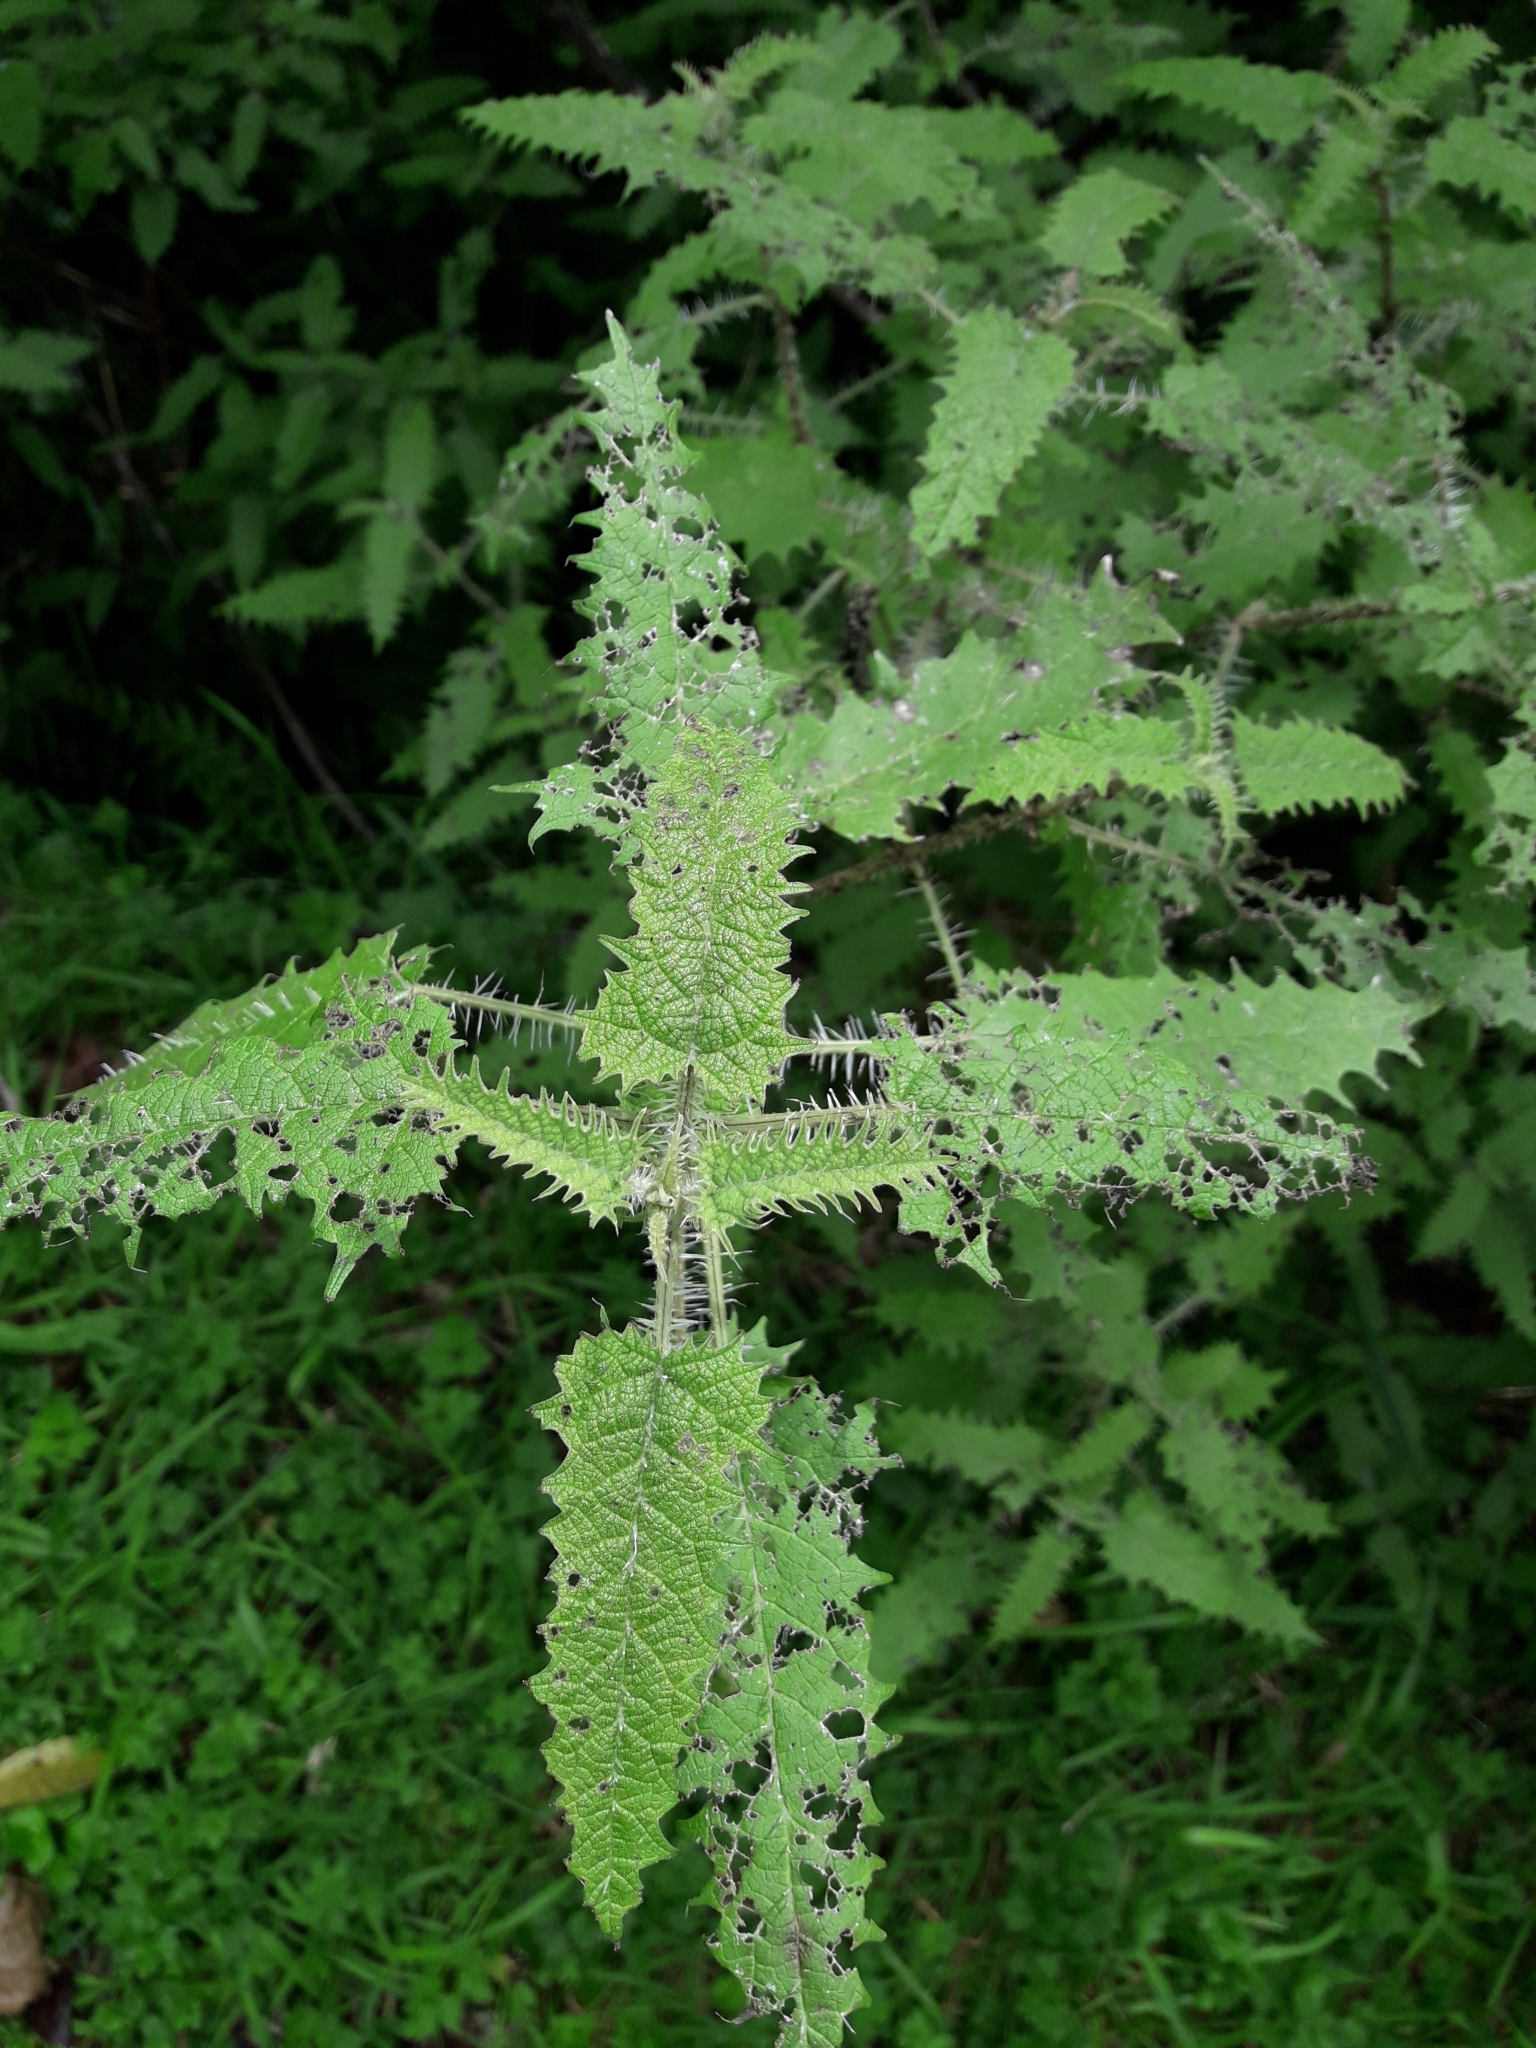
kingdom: Plantae
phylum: Tracheophyta
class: Magnoliopsida
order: Rosales
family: Urticaceae
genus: Urtica
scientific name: Urtica ferox
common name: Tree nettle
